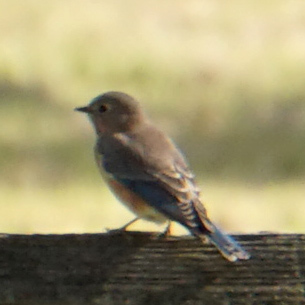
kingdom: Animalia
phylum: Chordata
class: Aves
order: Passeriformes
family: Turdidae
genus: Sialia
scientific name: Sialia sialis
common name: Eastern bluebird
